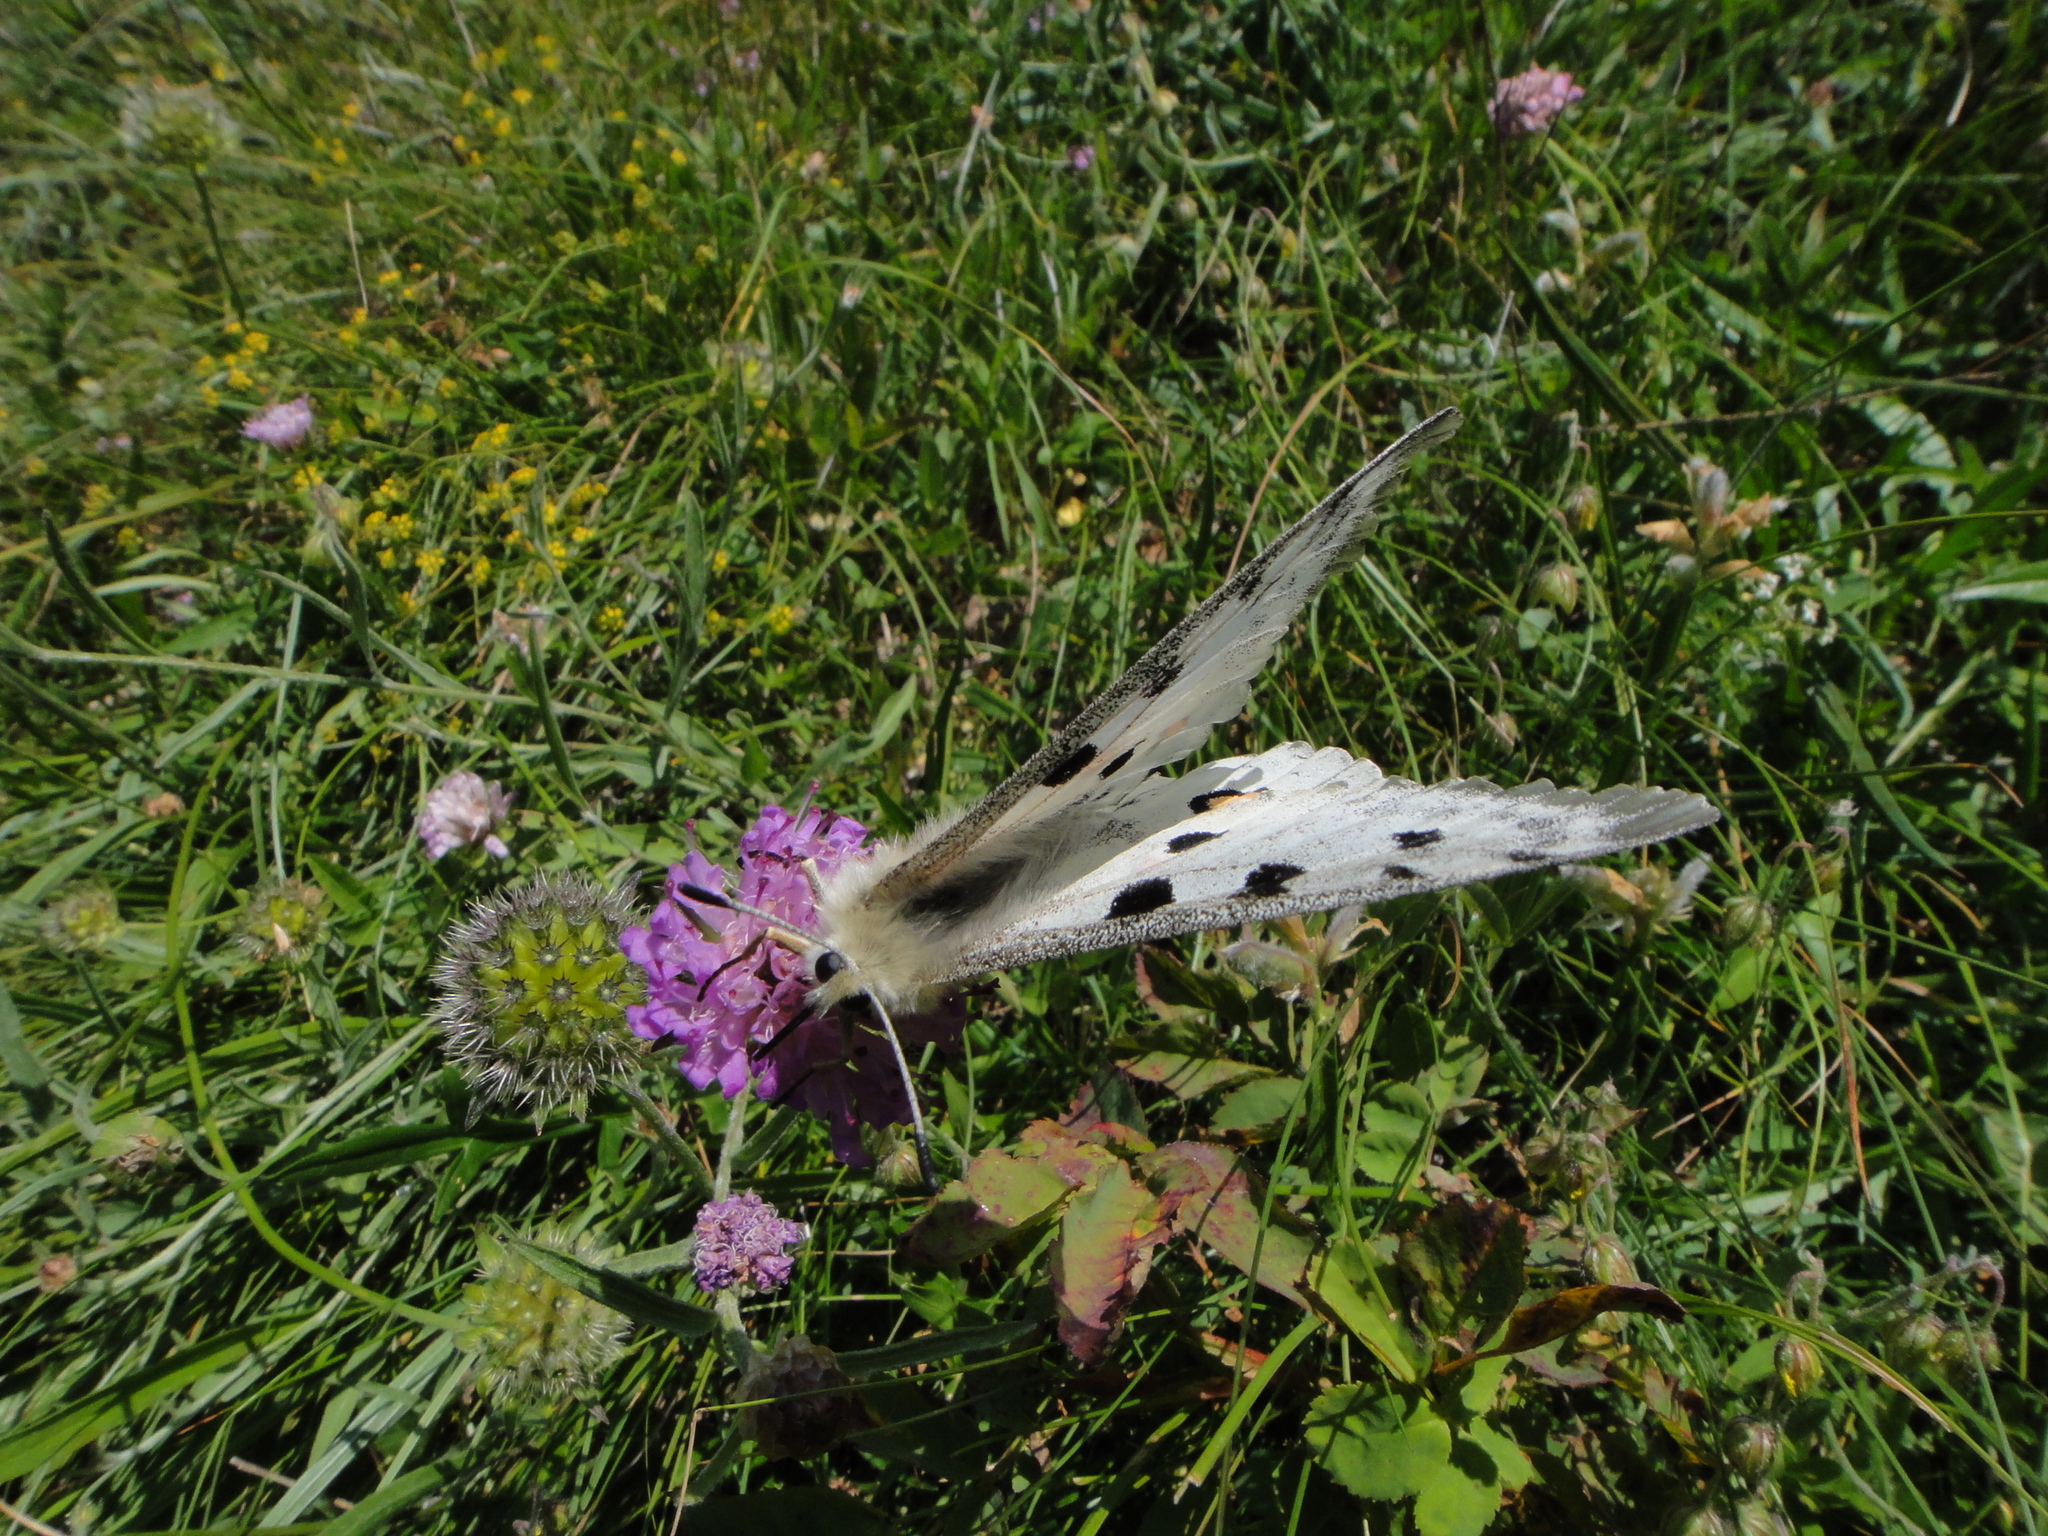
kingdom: Animalia
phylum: Arthropoda
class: Insecta
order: Lepidoptera
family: Papilionidae
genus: Parnassius
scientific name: Parnassius apollo
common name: Apollo
